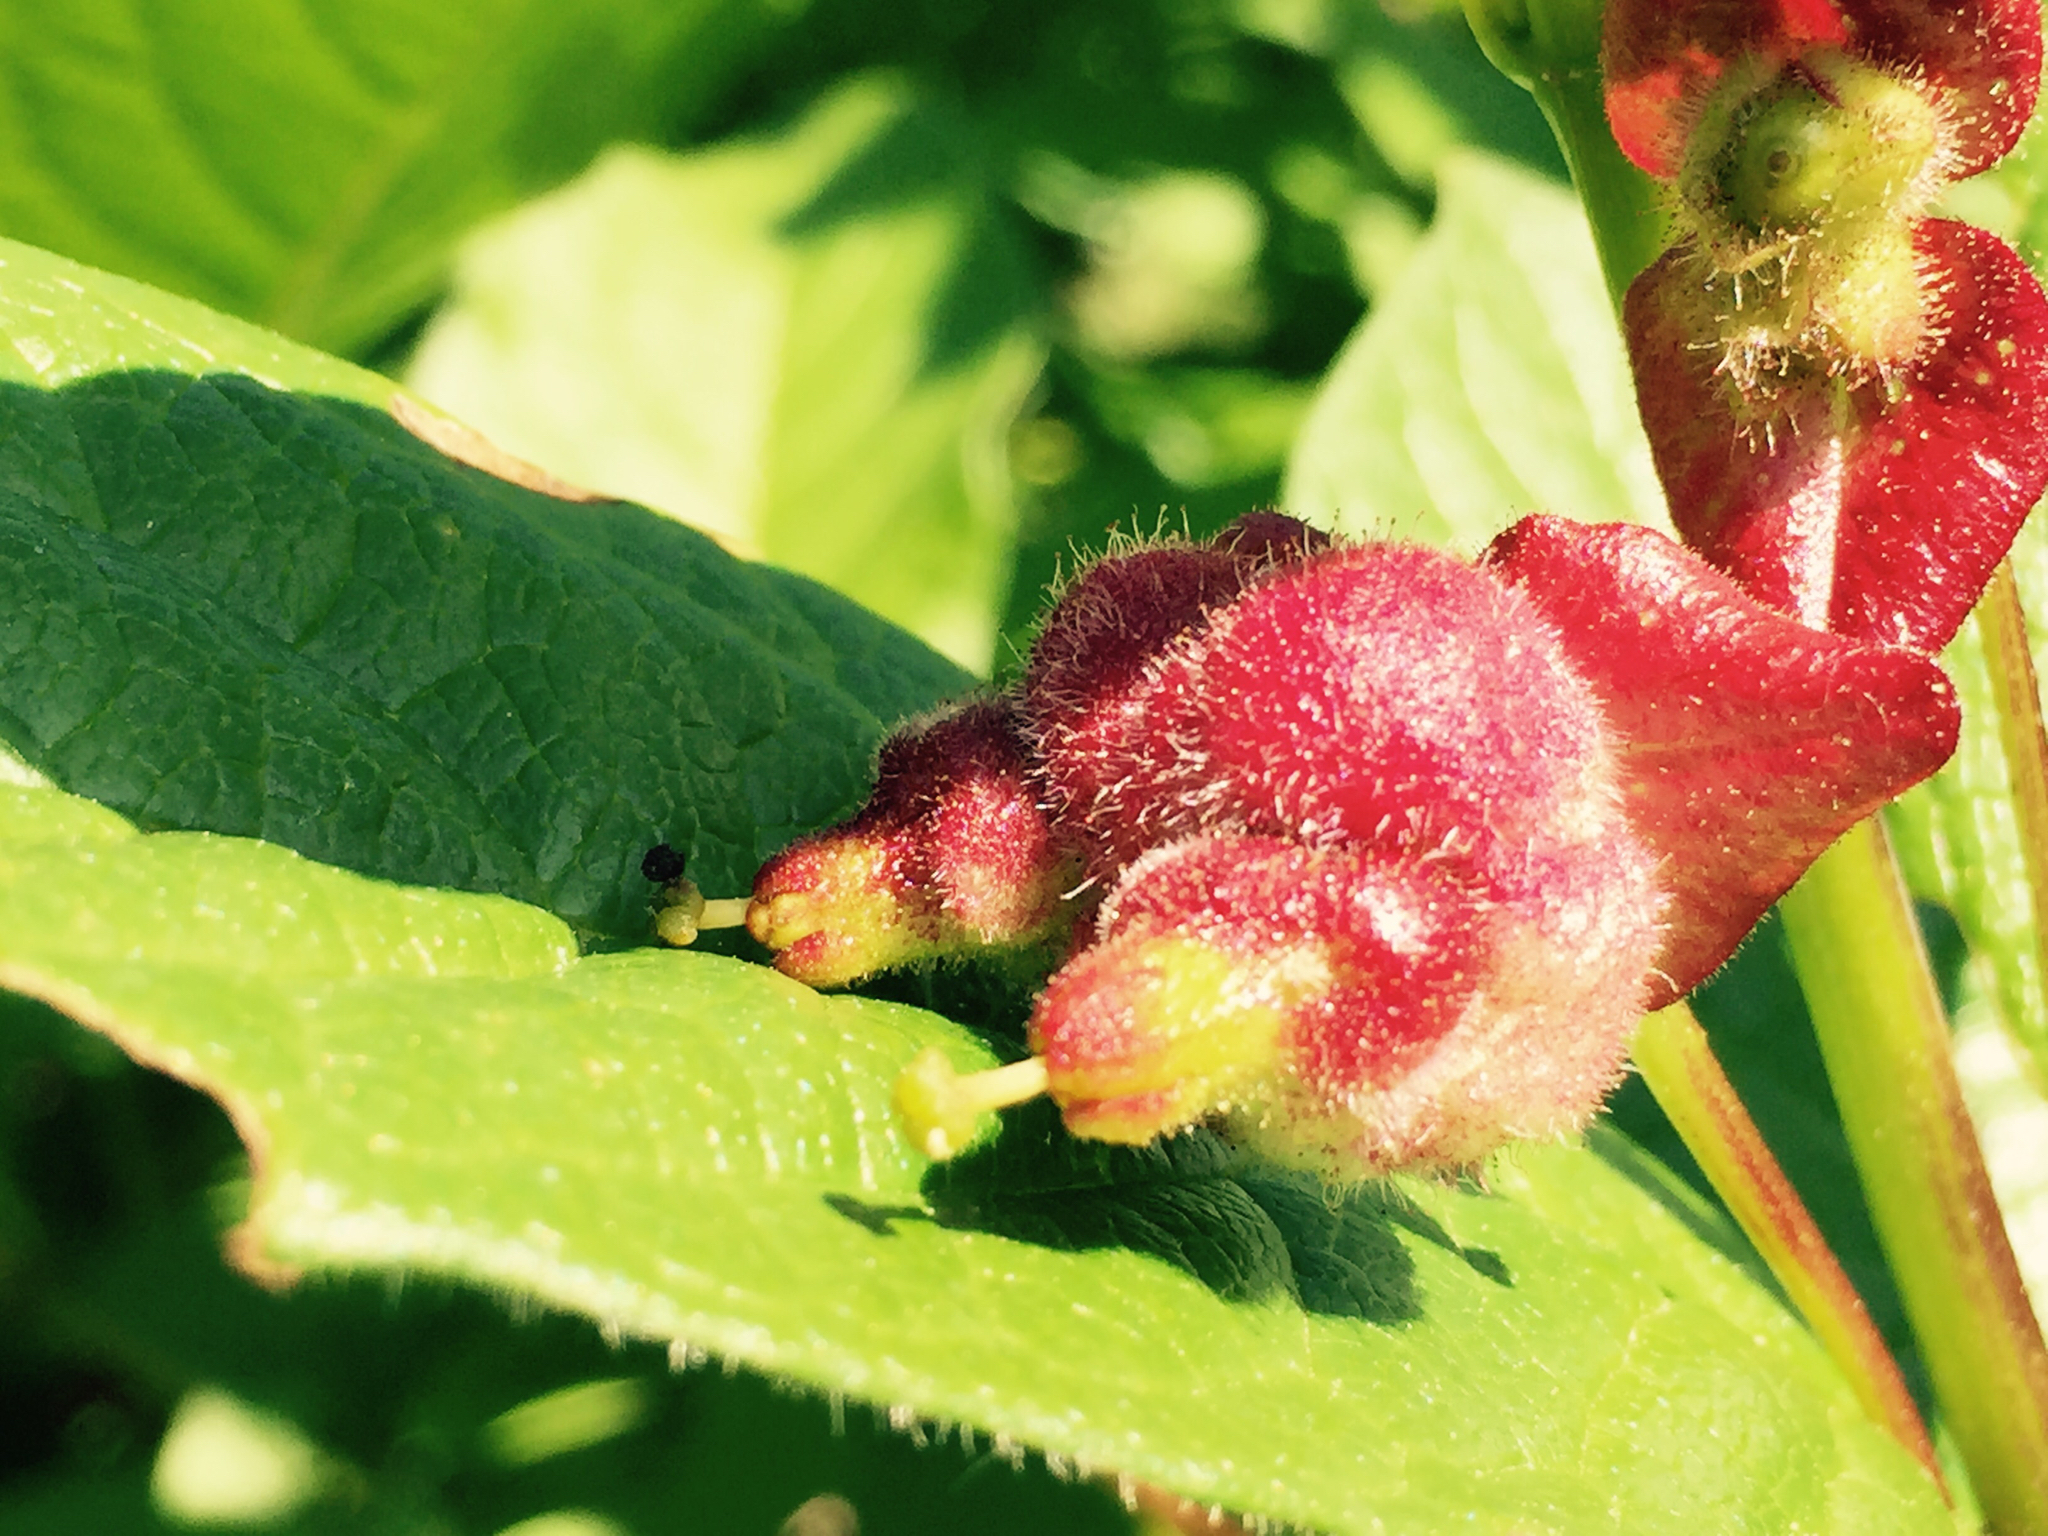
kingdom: Plantae
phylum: Tracheophyta
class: Magnoliopsida
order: Dipsacales
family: Caprifoliaceae
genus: Lonicera
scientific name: Lonicera involucrata
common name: Californian honeysuckle
